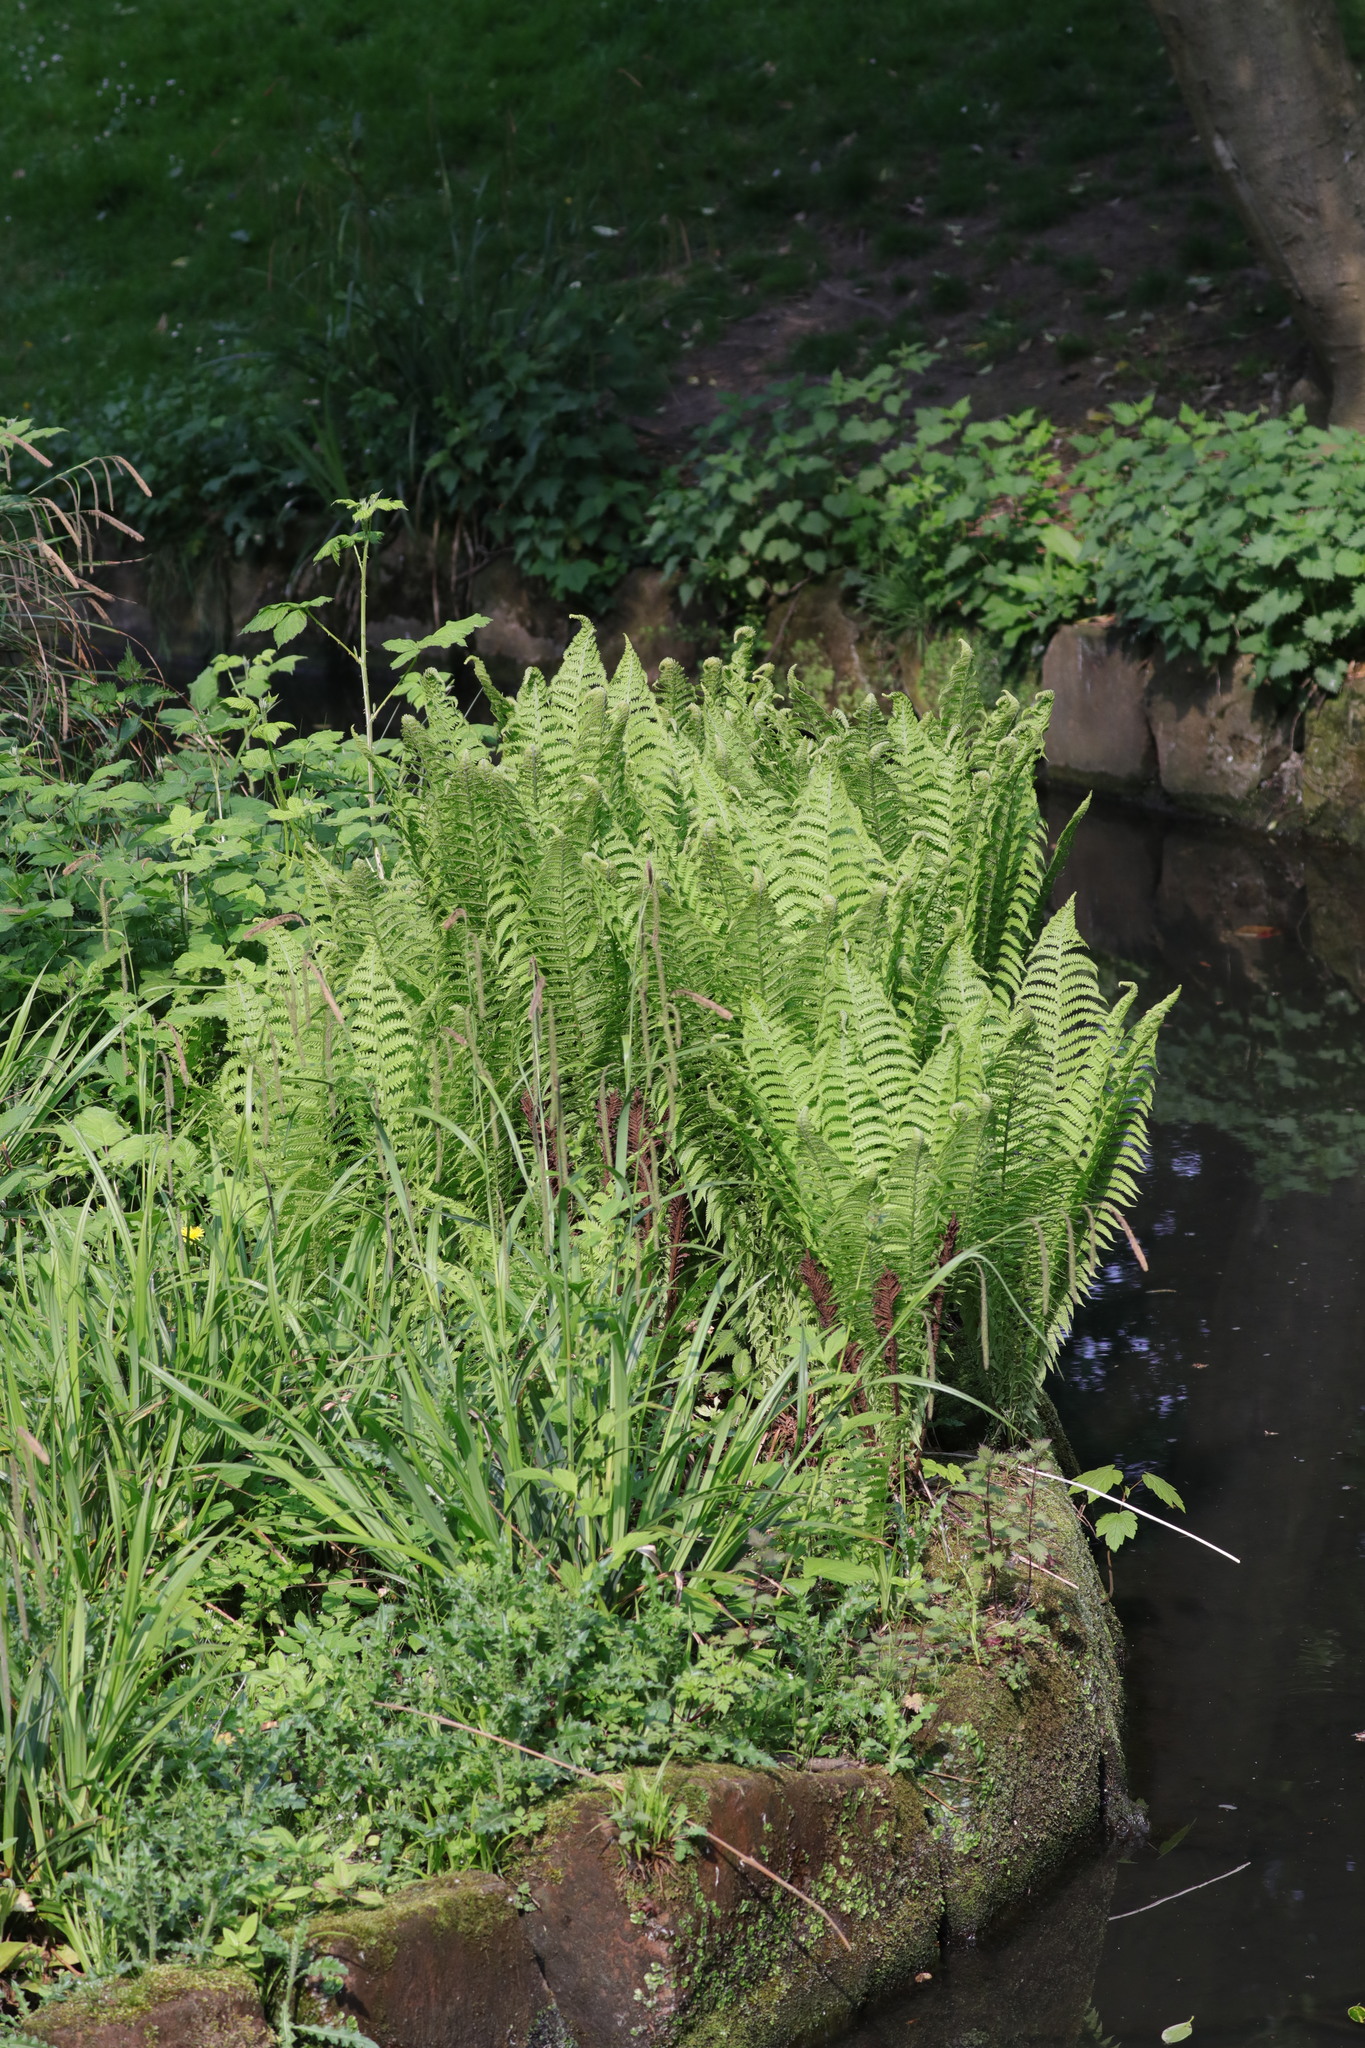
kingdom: Plantae
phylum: Tracheophyta
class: Polypodiopsida
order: Polypodiales
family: Onocleaceae
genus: Matteuccia
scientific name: Matteuccia struthiopteris
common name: Ostrich fern
